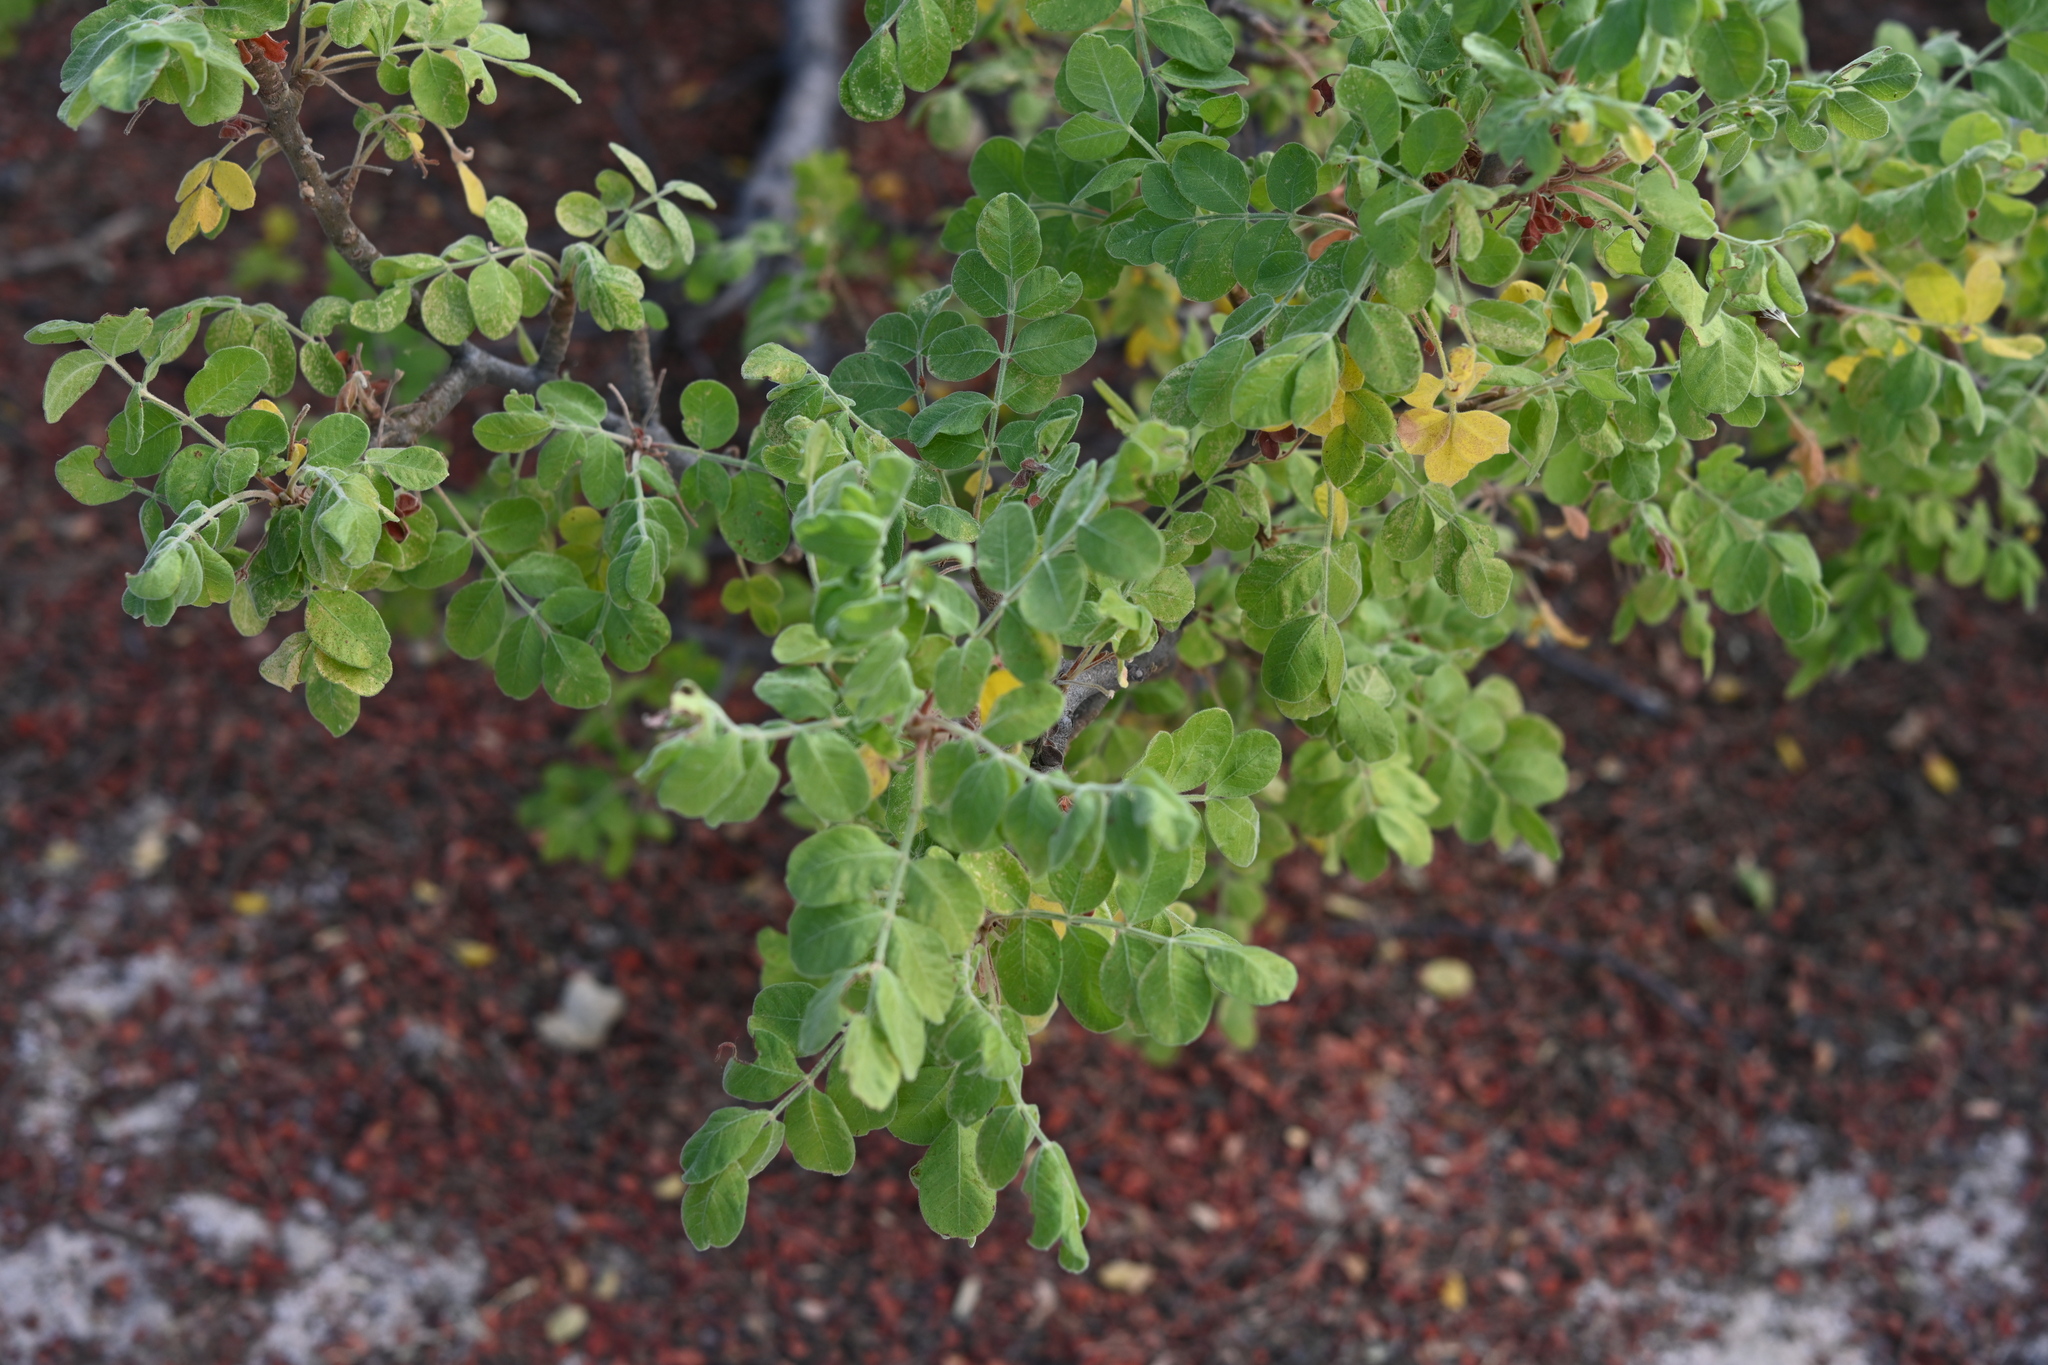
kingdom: Plantae
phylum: Tracheophyta
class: Magnoliopsida
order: Sapindales
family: Anacardiaceae
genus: Cyrtocarpa
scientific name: Cyrtocarpa edulis
